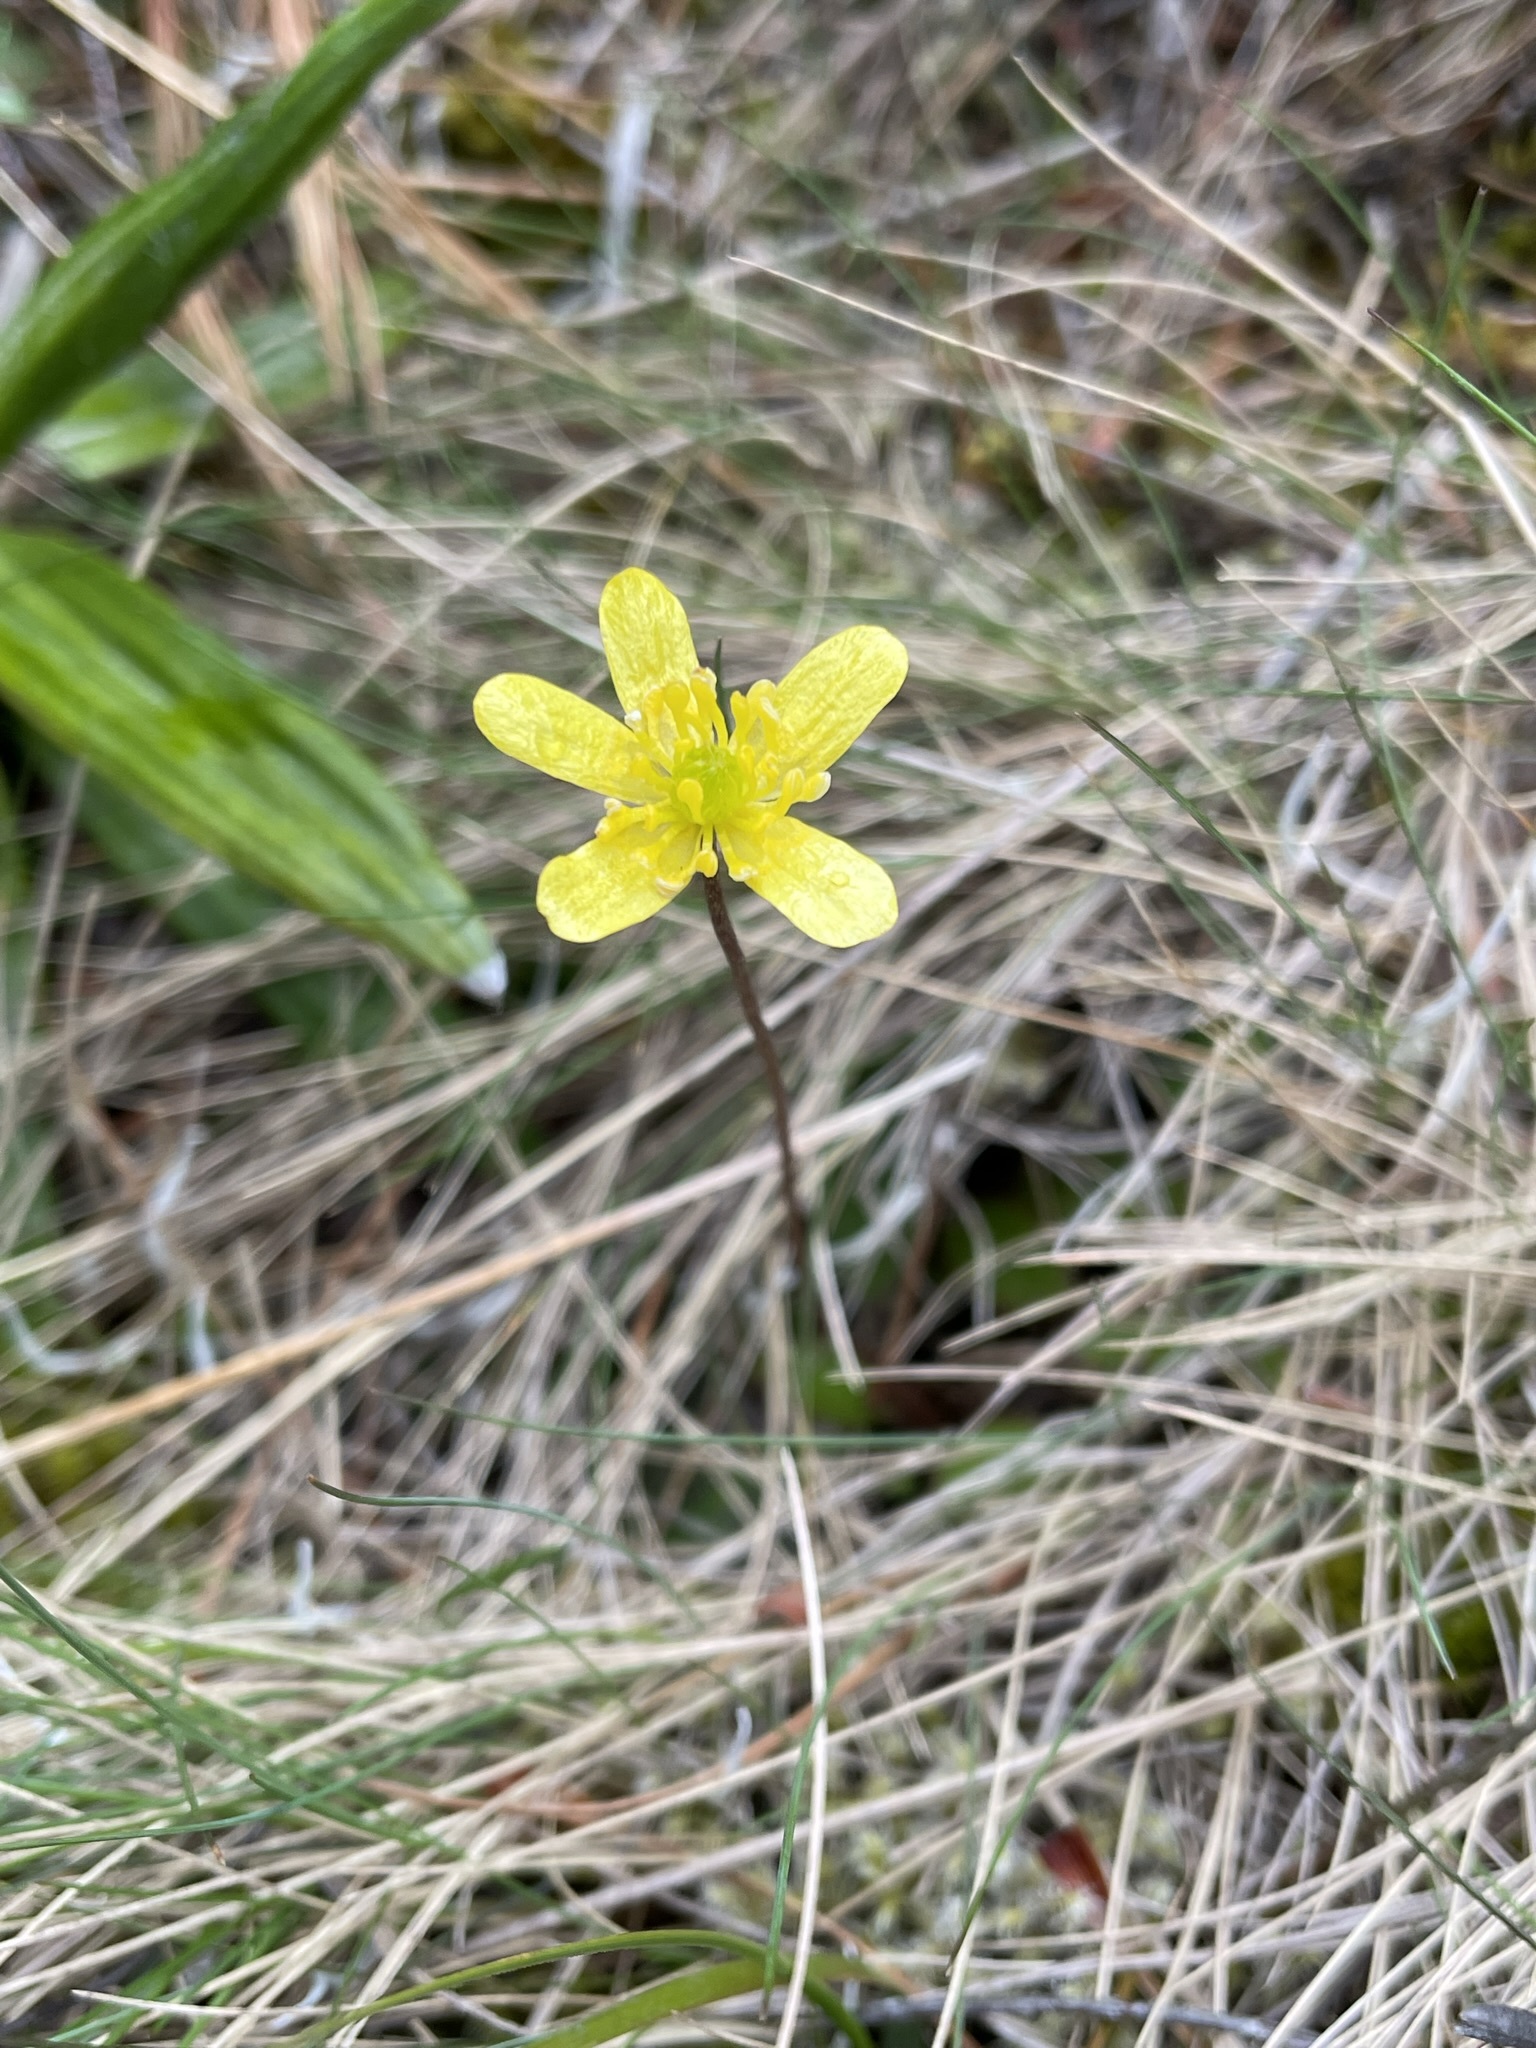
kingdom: Plantae
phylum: Tracheophyta
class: Magnoliopsida
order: Ranunculales
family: Ranunculaceae
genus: Ranunculus
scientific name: Ranunculus insignis
